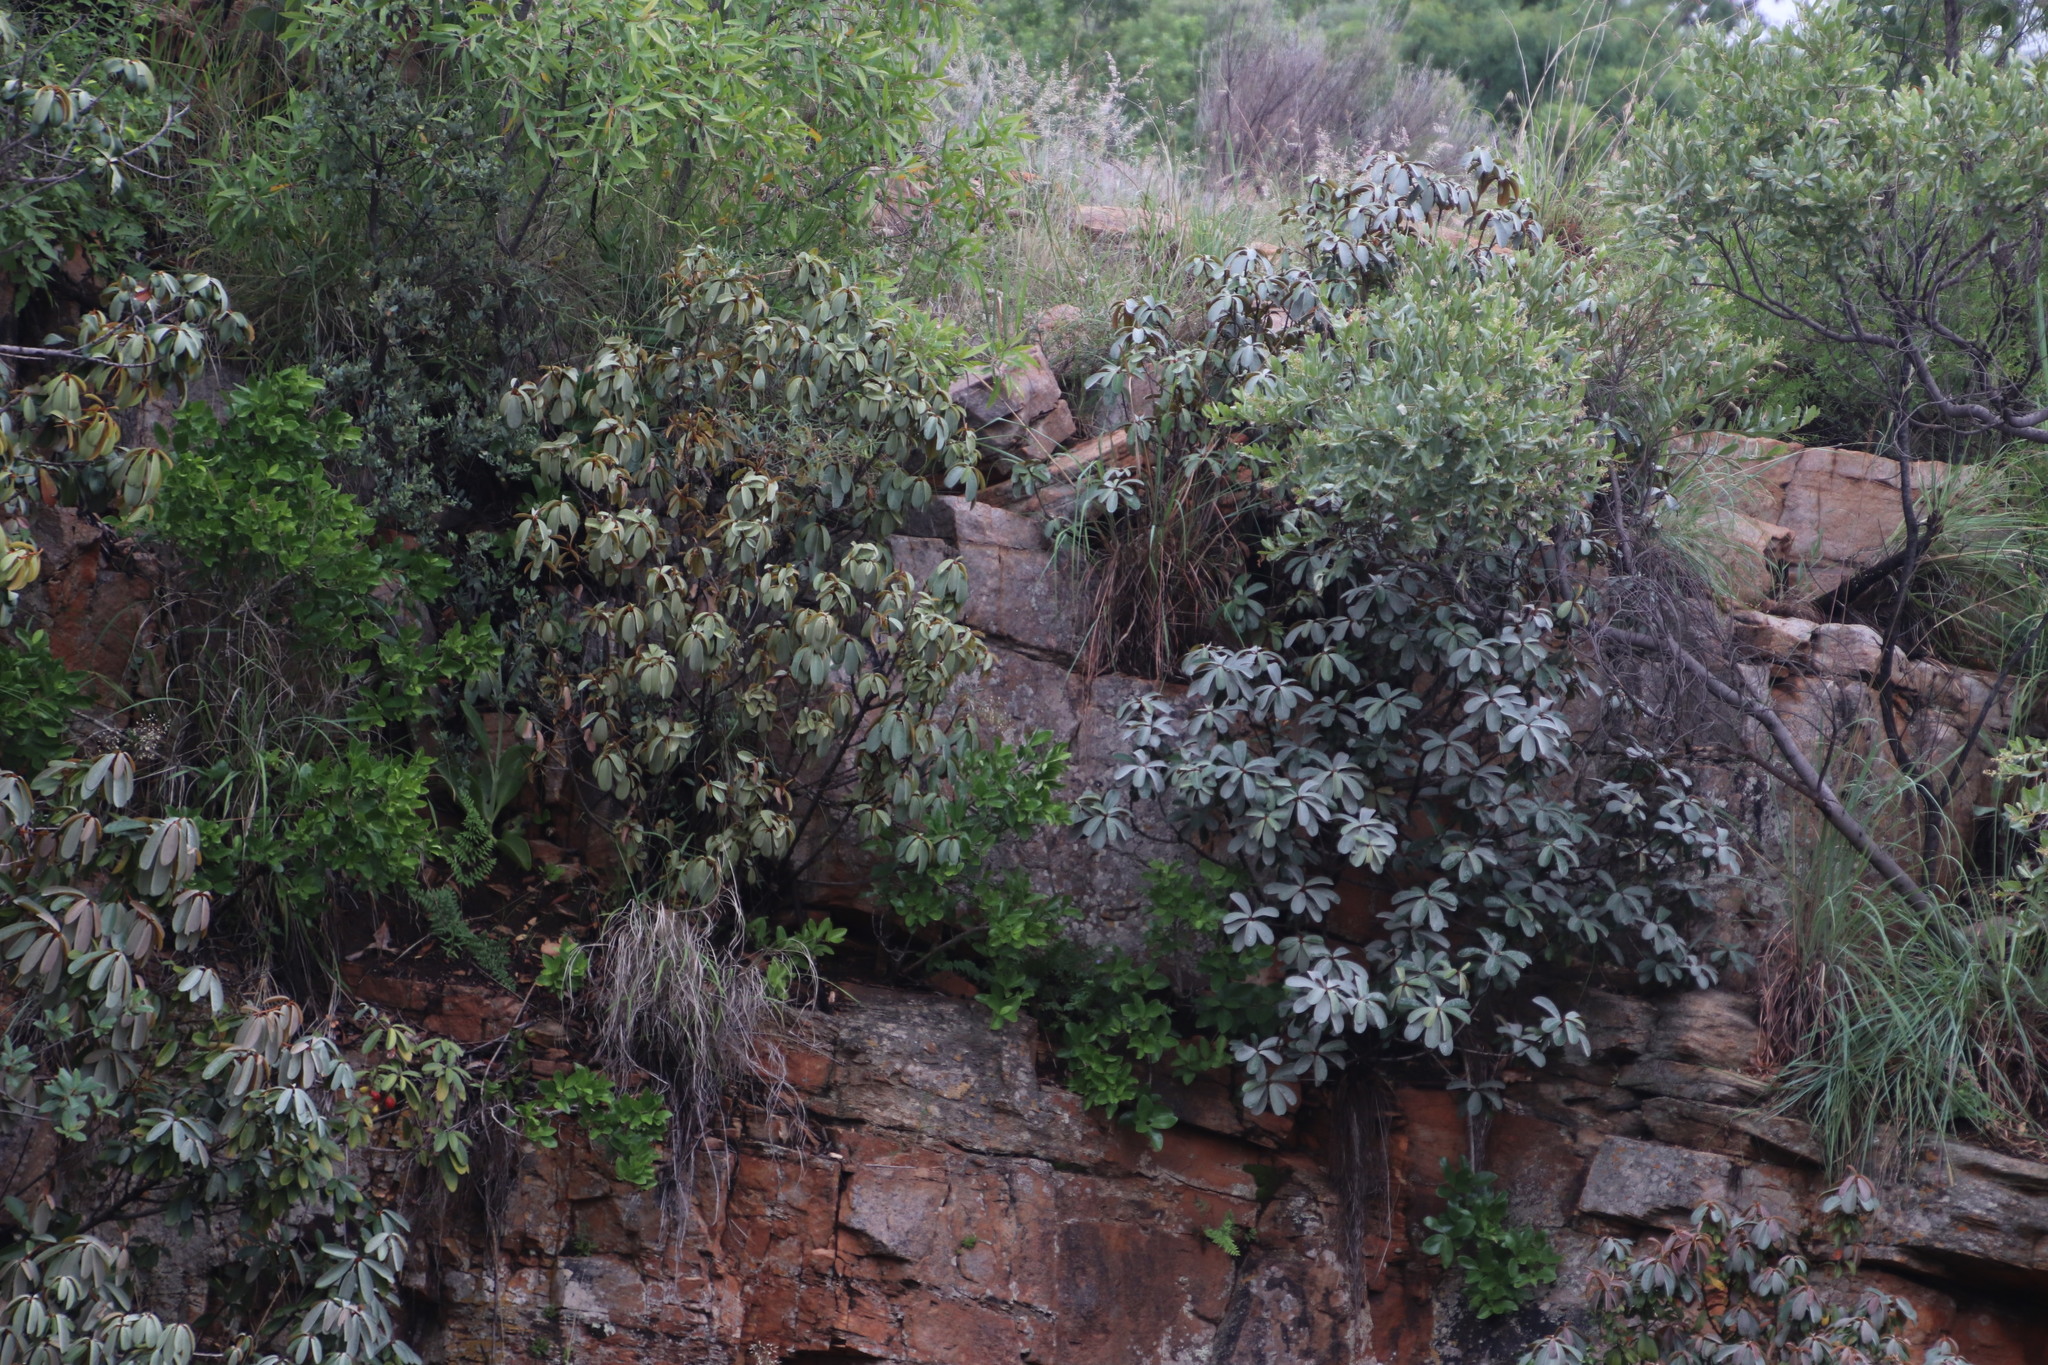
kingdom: Plantae
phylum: Tracheophyta
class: Magnoliopsida
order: Ericales
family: Sapotaceae
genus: Englerophytum
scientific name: Englerophytum magalismontanum
